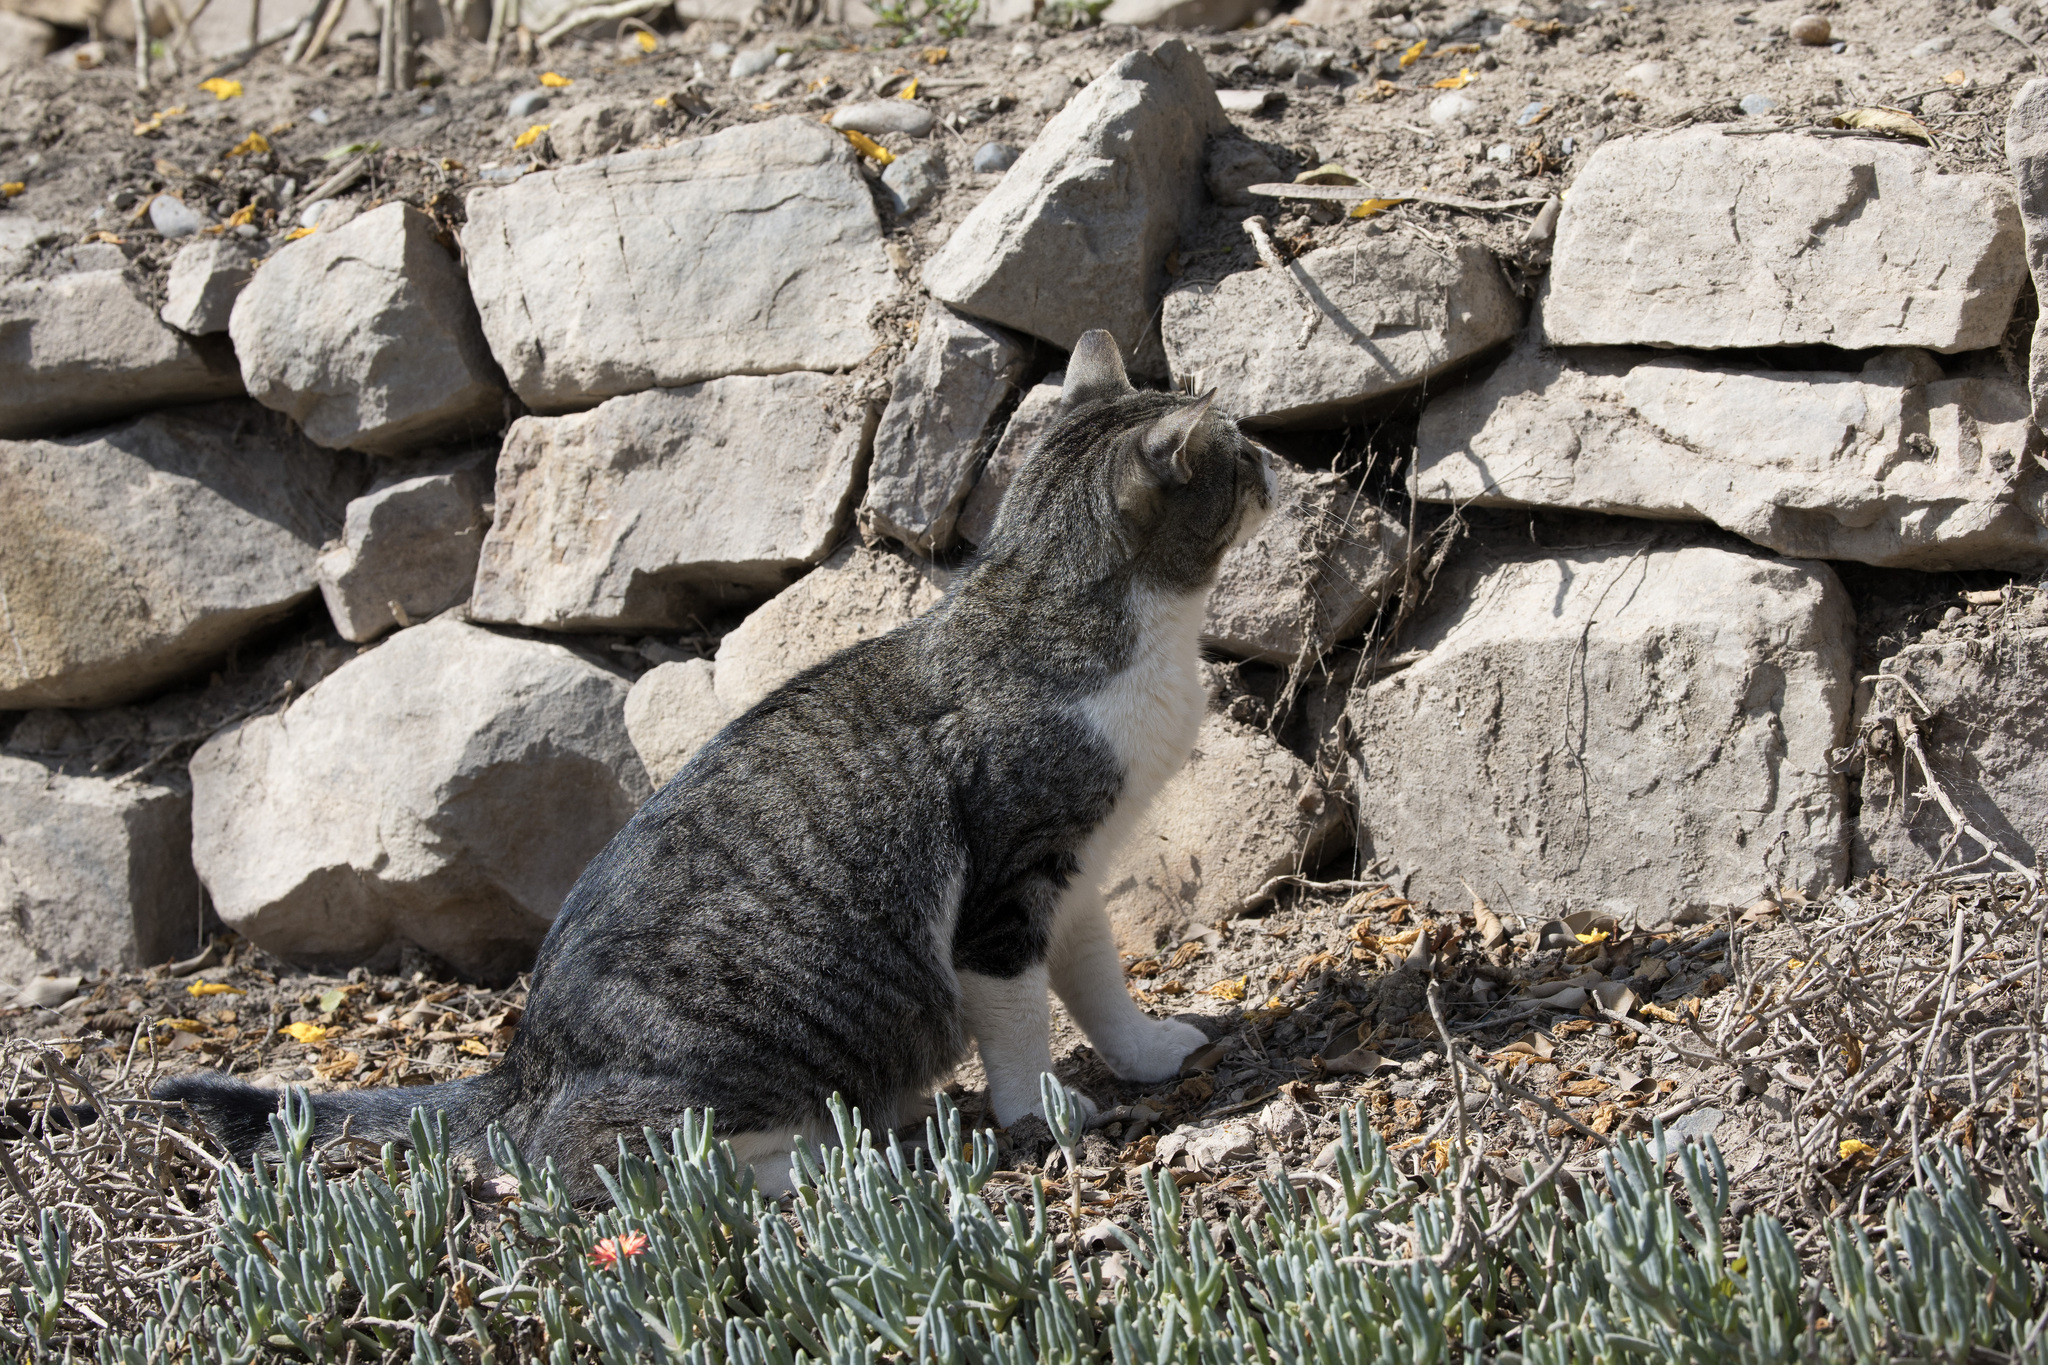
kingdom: Animalia
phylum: Chordata
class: Mammalia
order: Carnivora
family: Felidae
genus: Felis
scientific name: Felis catus
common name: Domestic cat
